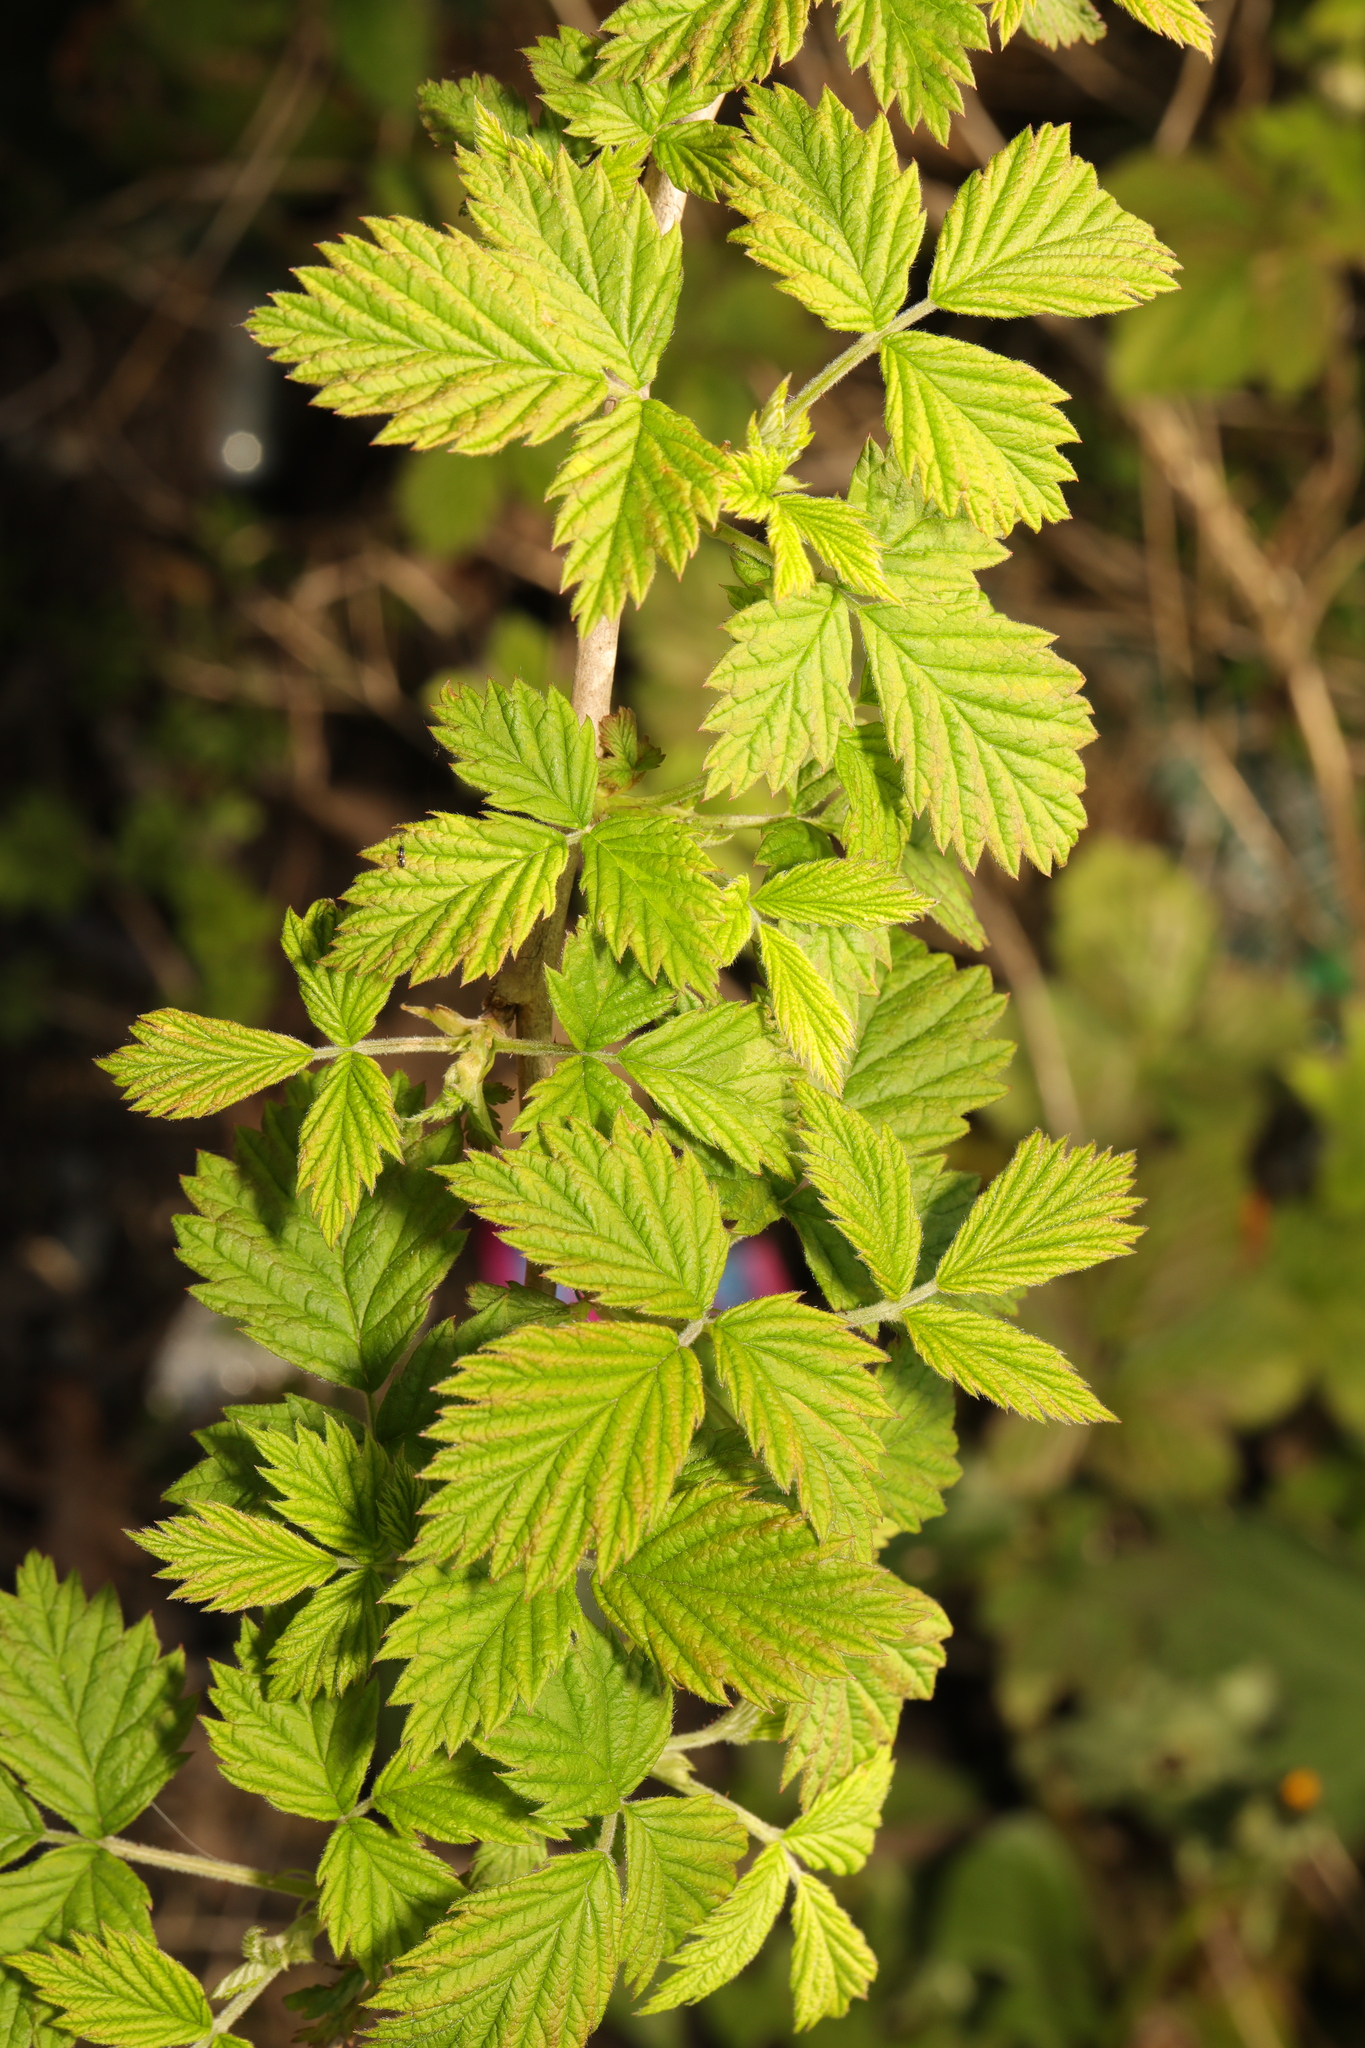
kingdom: Plantae
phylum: Tracheophyta
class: Magnoliopsida
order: Rosales
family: Rosaceae
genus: Rubus
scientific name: Rubus idaeus
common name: Raspberry
